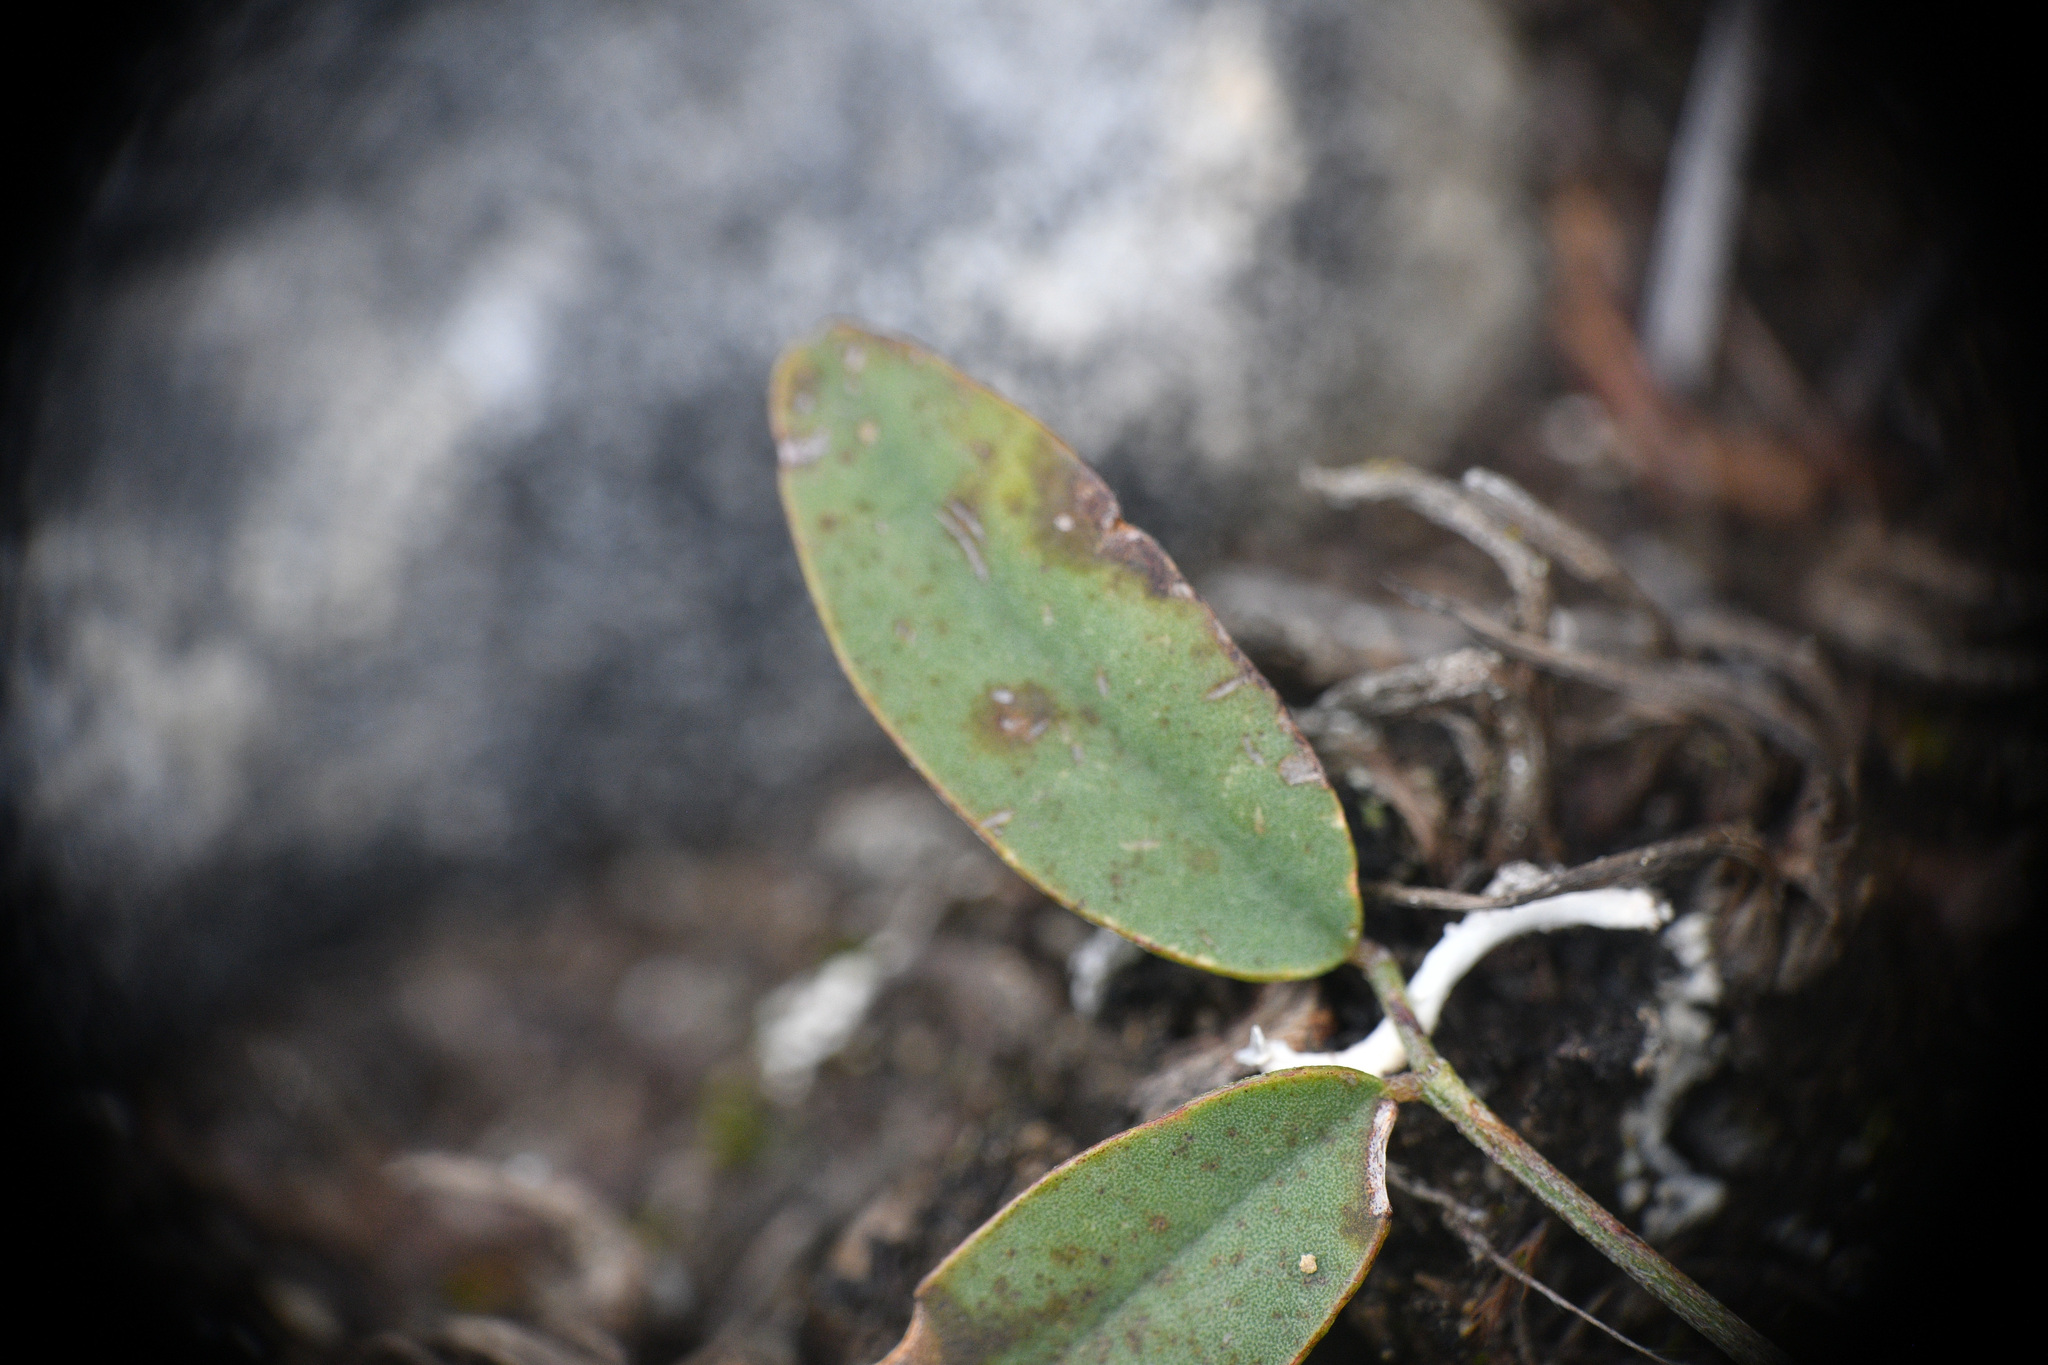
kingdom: Plantae
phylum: Tracheophyta
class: Magnoliopsida
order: Fabales
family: Fabaceae
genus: Hedysarum
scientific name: Hedysarum boreale
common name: Northern sweet-vetch
